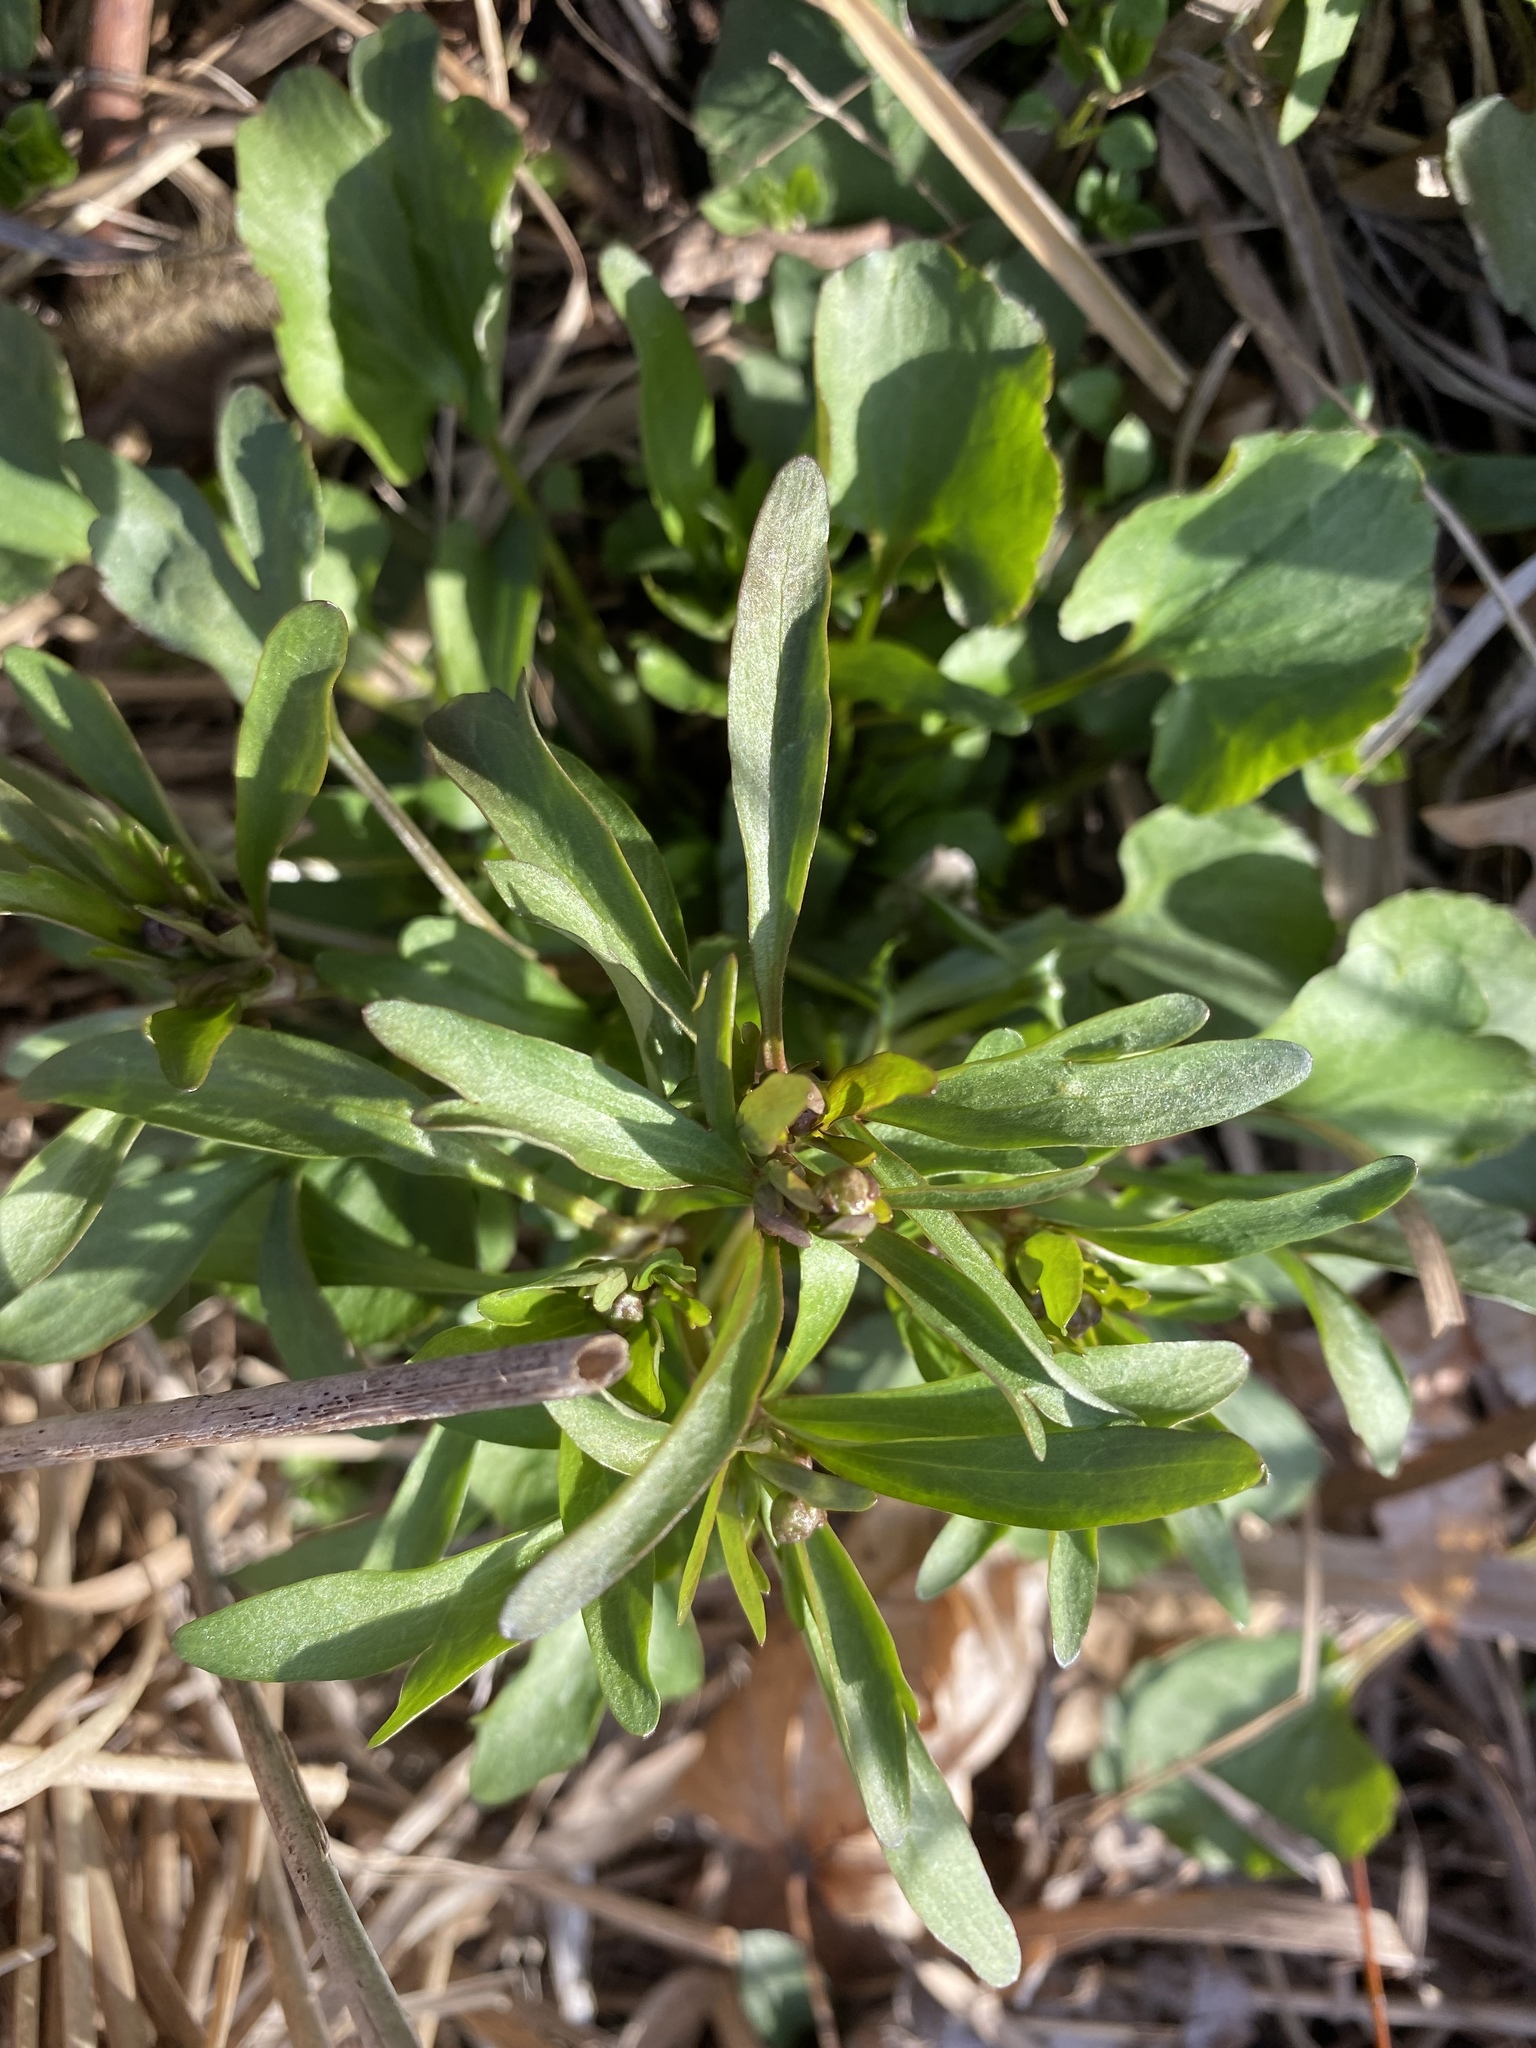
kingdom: Plantae
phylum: Tracheophyta
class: Magnoliopsida
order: Ranunculales
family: Ranunculaceae
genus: Ranunculus
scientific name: Ranunculus abortivus
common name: Early wood buttercup
